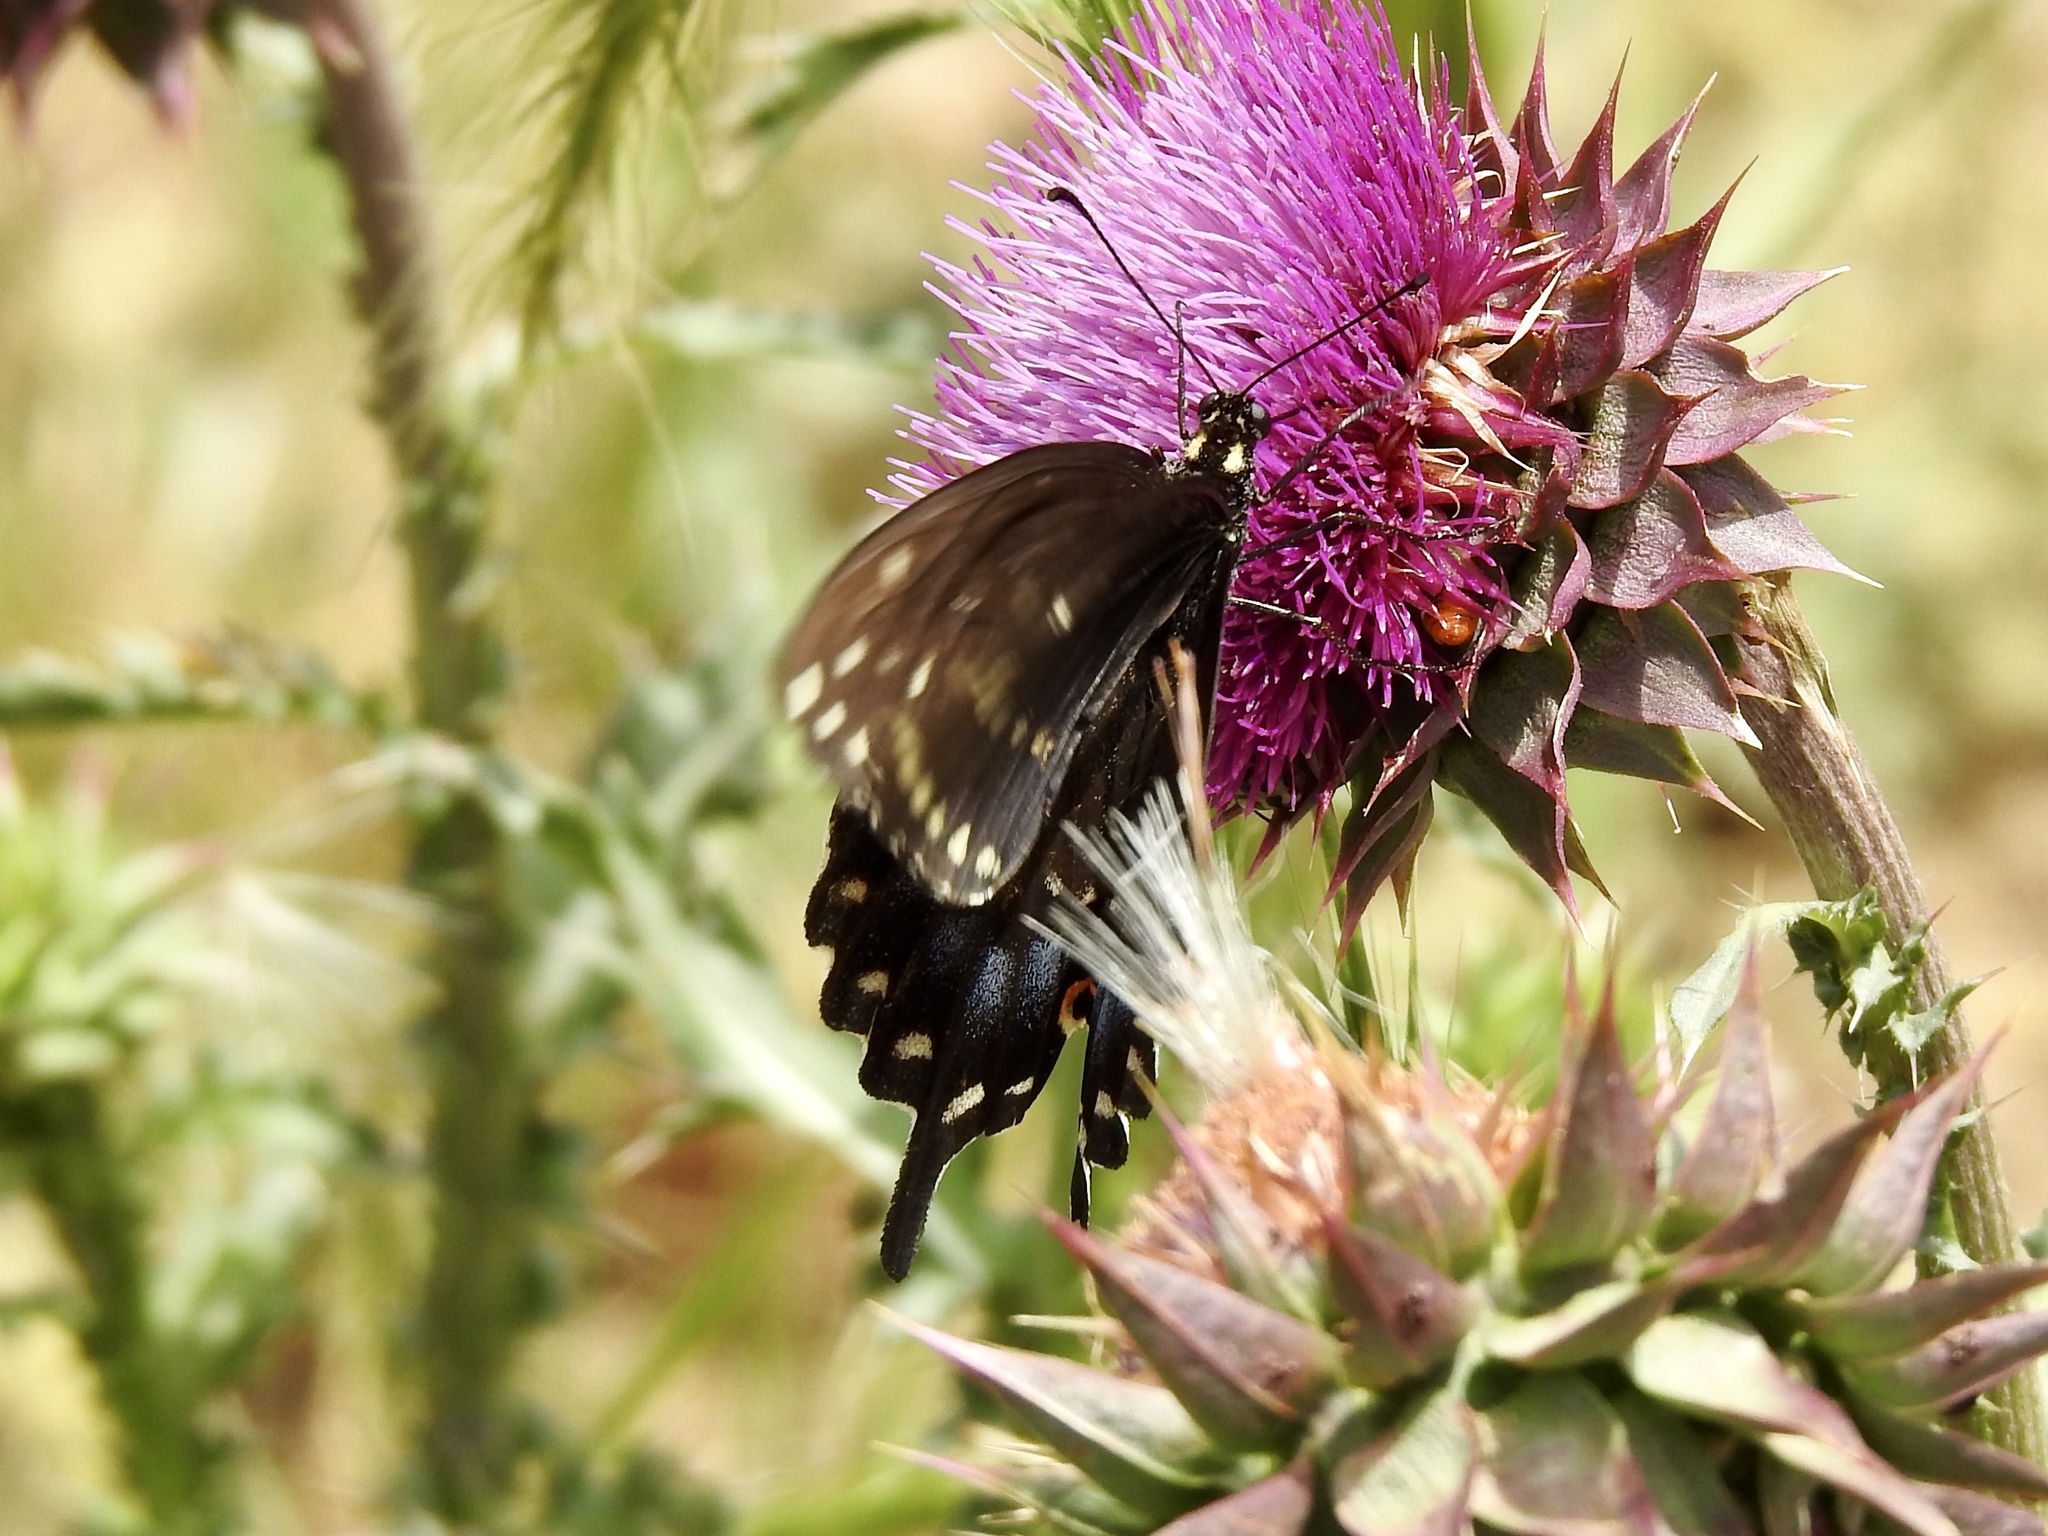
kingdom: Animalia
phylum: Arthropoda
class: Insecta
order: Lepidoptera
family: Papilionidae
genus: Papilio
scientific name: Papilio polyxenes
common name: Black swallowtail
